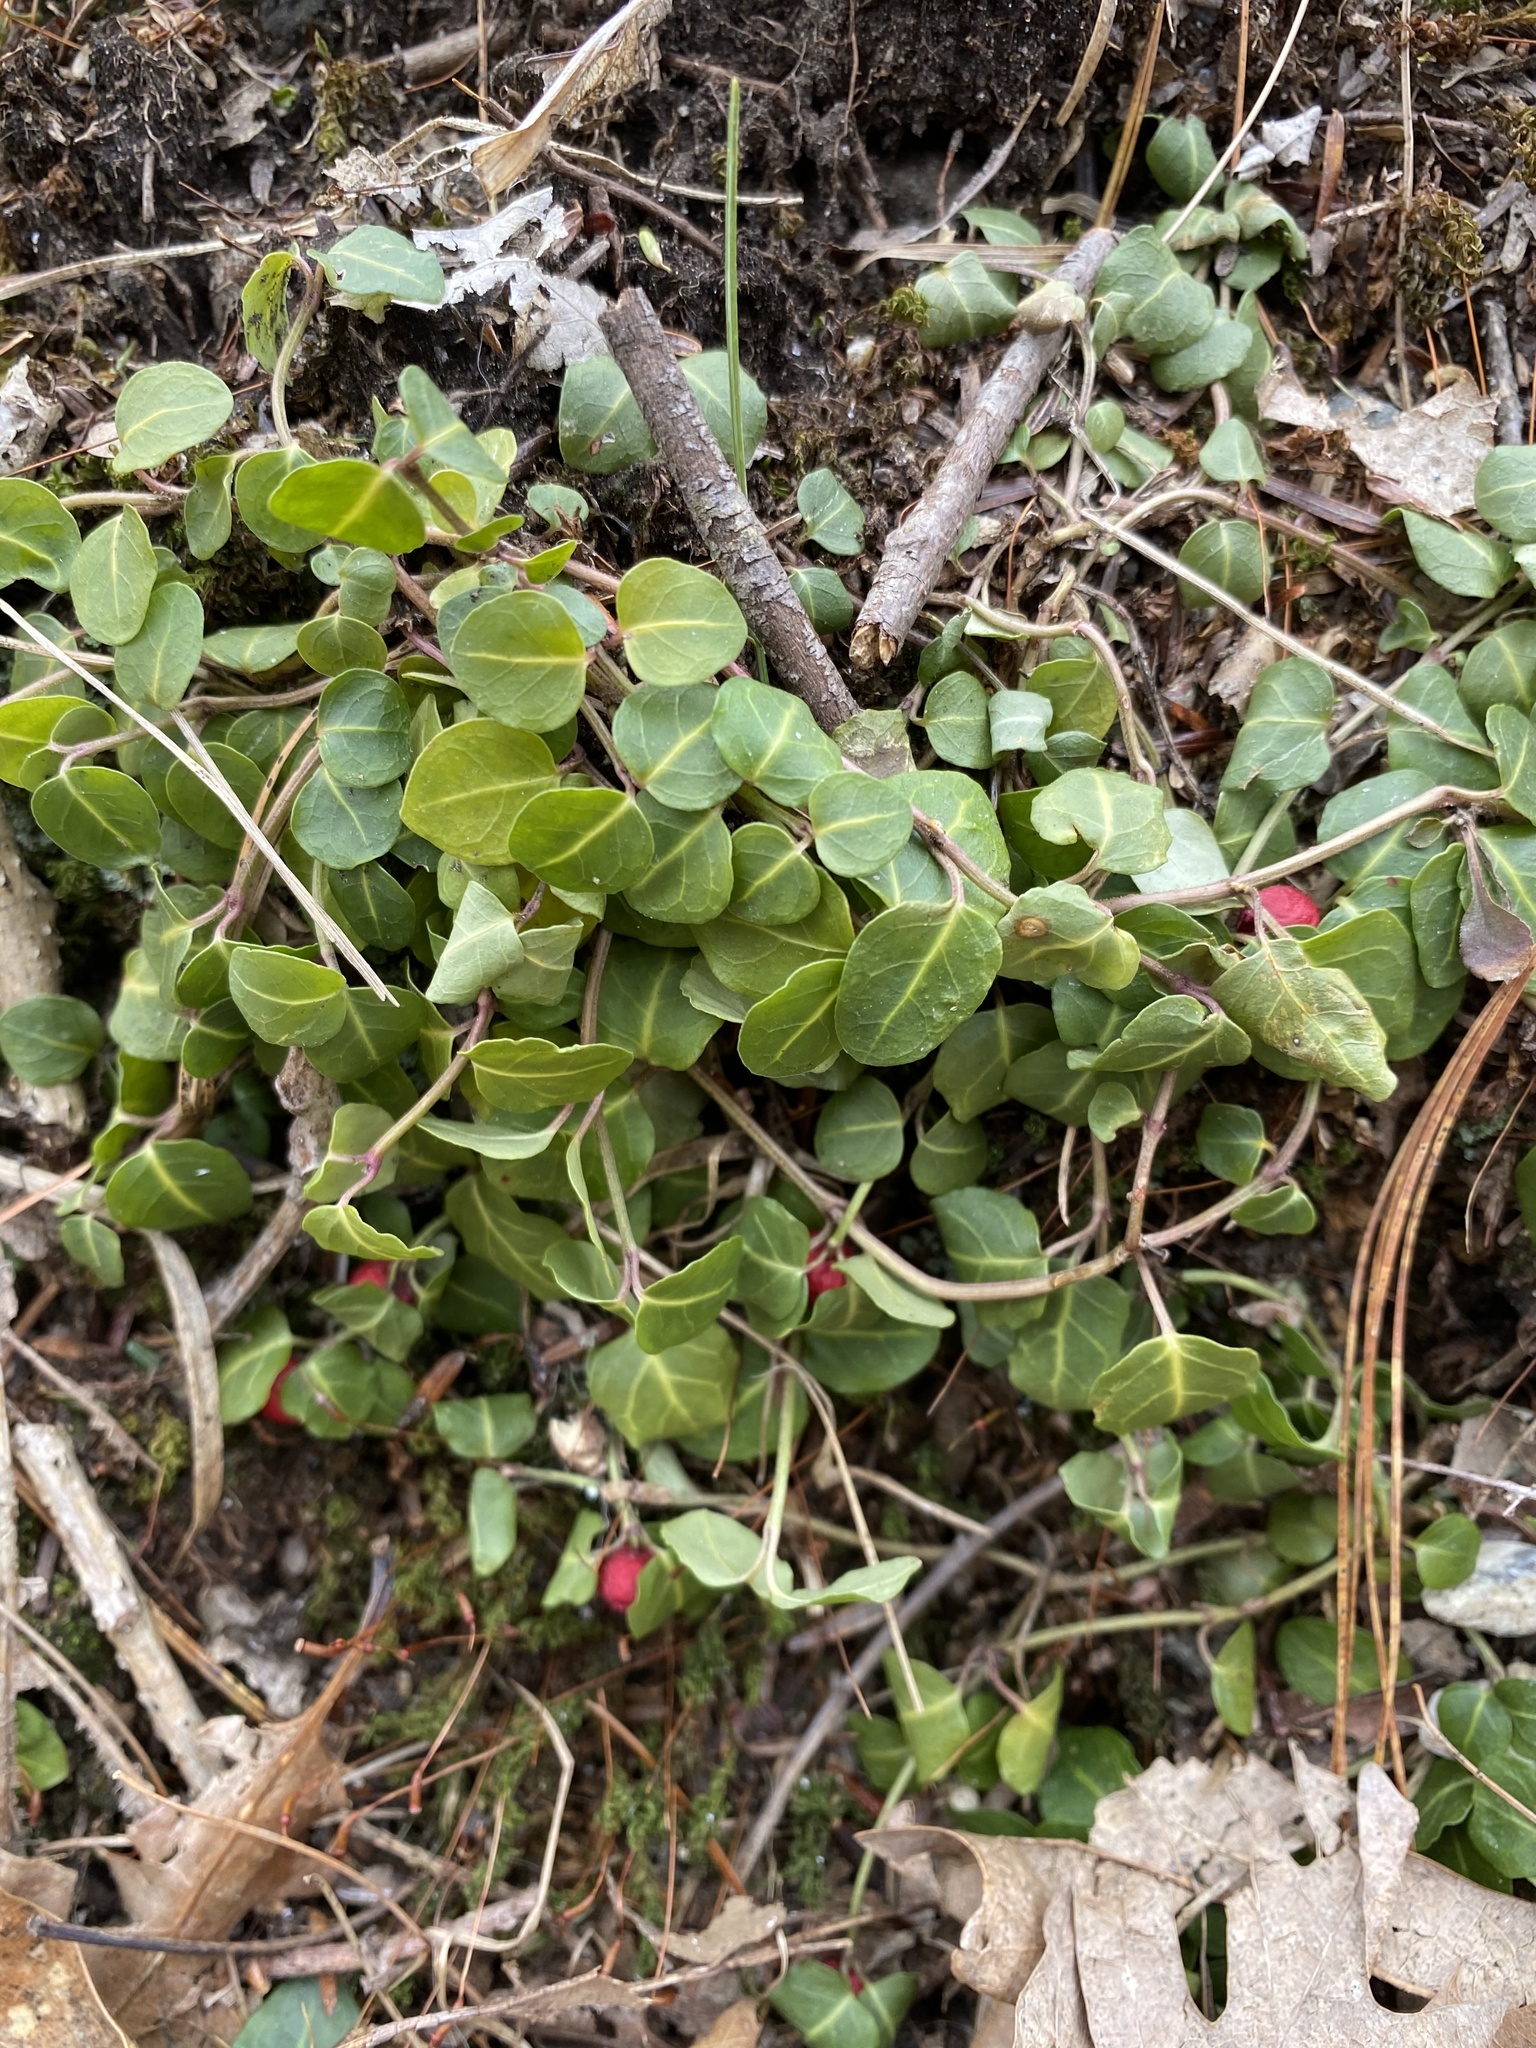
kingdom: Plantae
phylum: Tracheophyta
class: Magnoliopsida
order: Gentianales
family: Rubiaceae
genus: Mitchella
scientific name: Mitchella repens
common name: Partridge-berry
